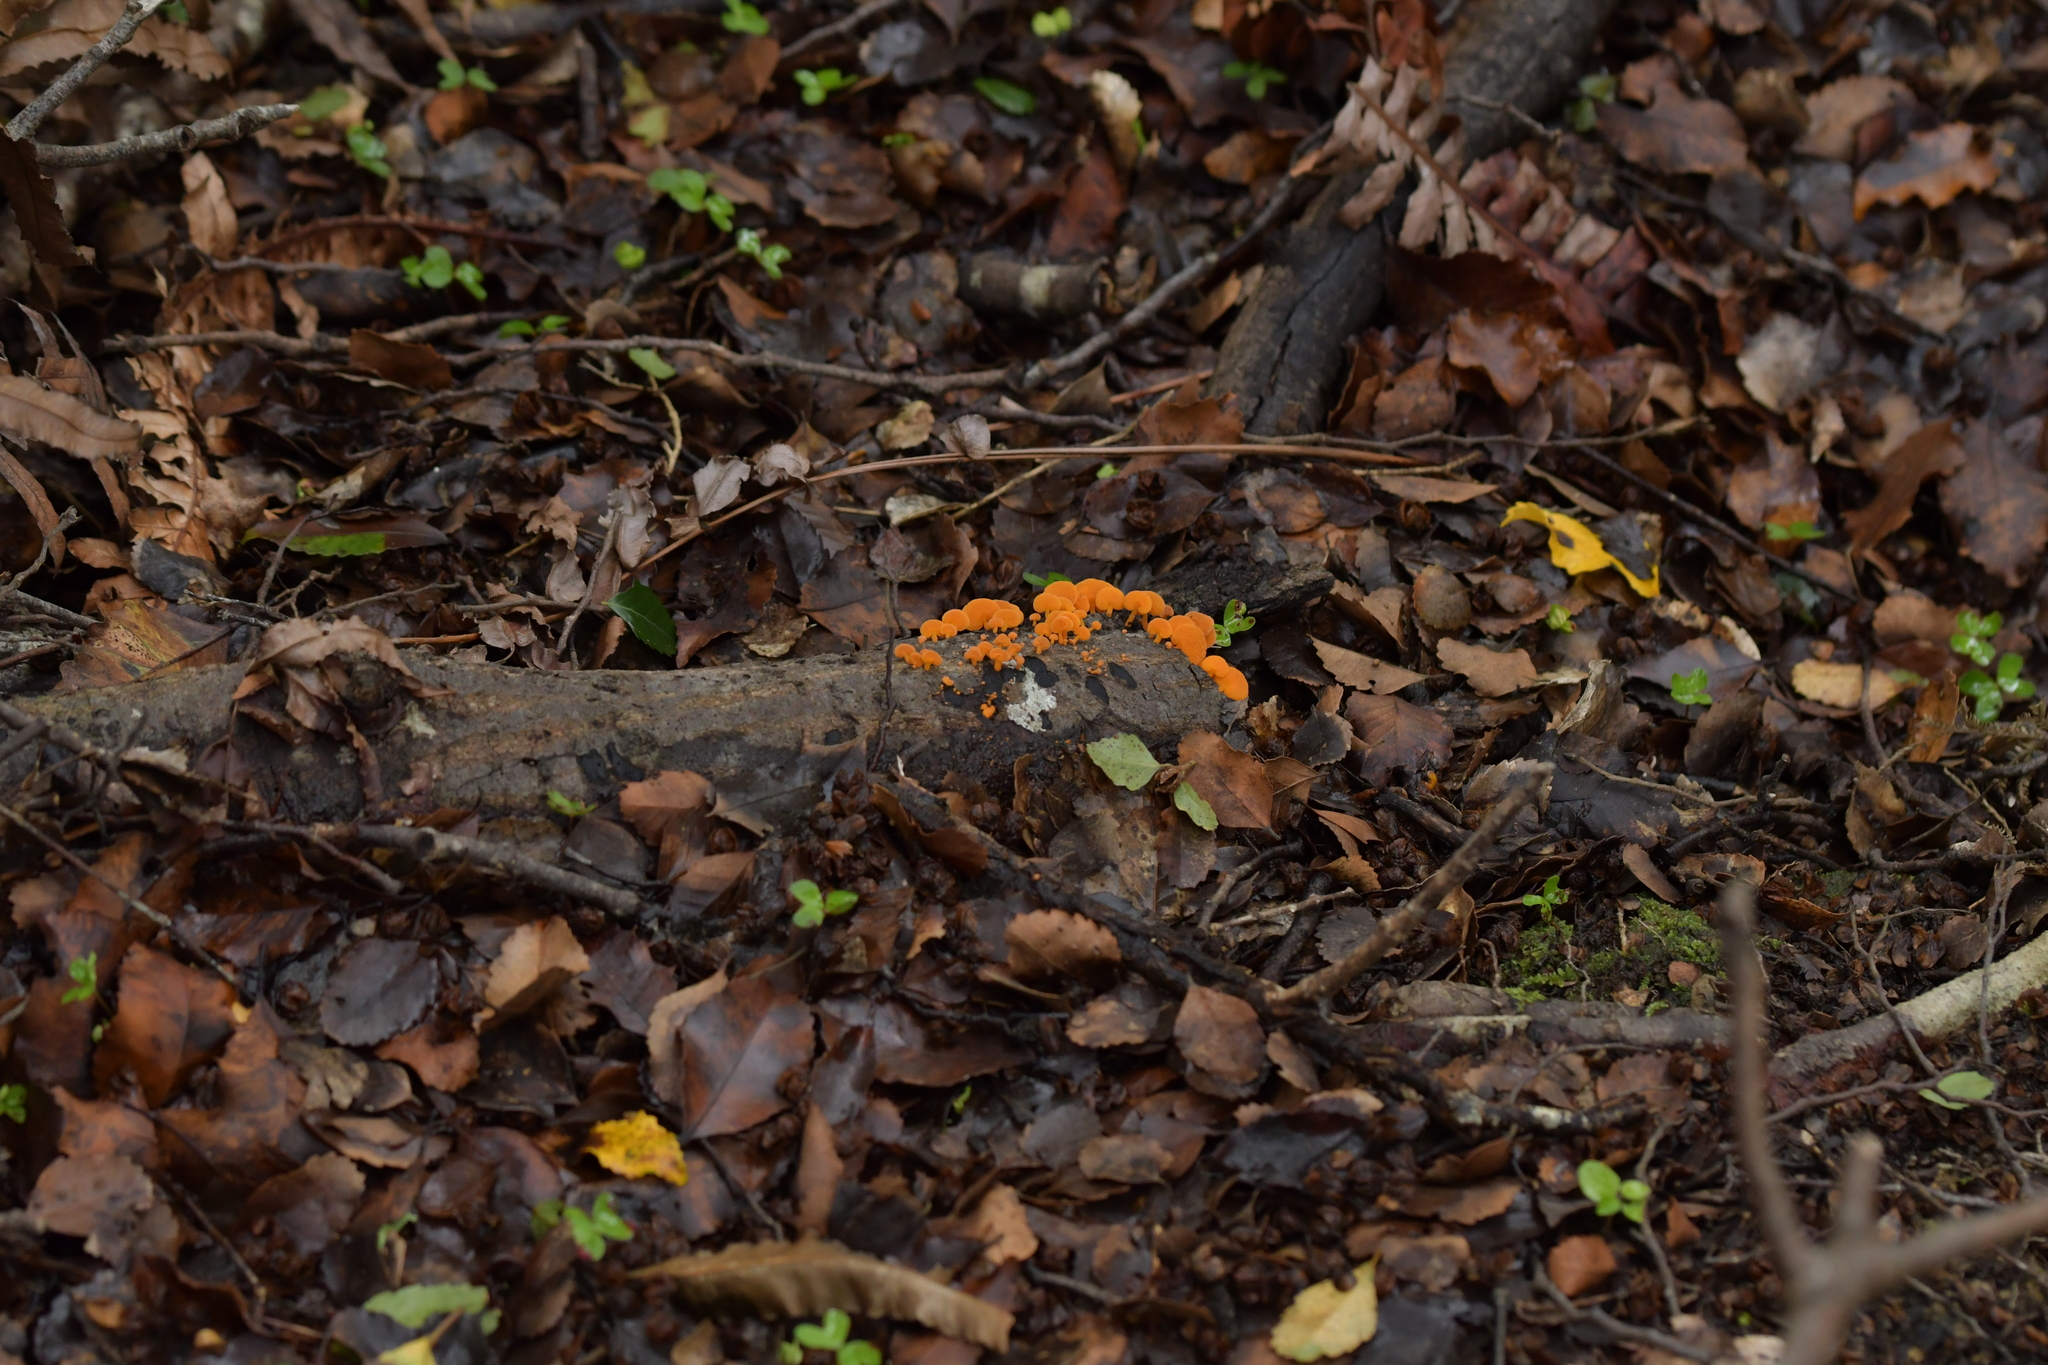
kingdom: Fungi
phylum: Basidiomycota
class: Agaricomycetes
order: Agaricales
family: Mycenaceae
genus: Favolaschia
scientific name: Favolaschia claudopus
